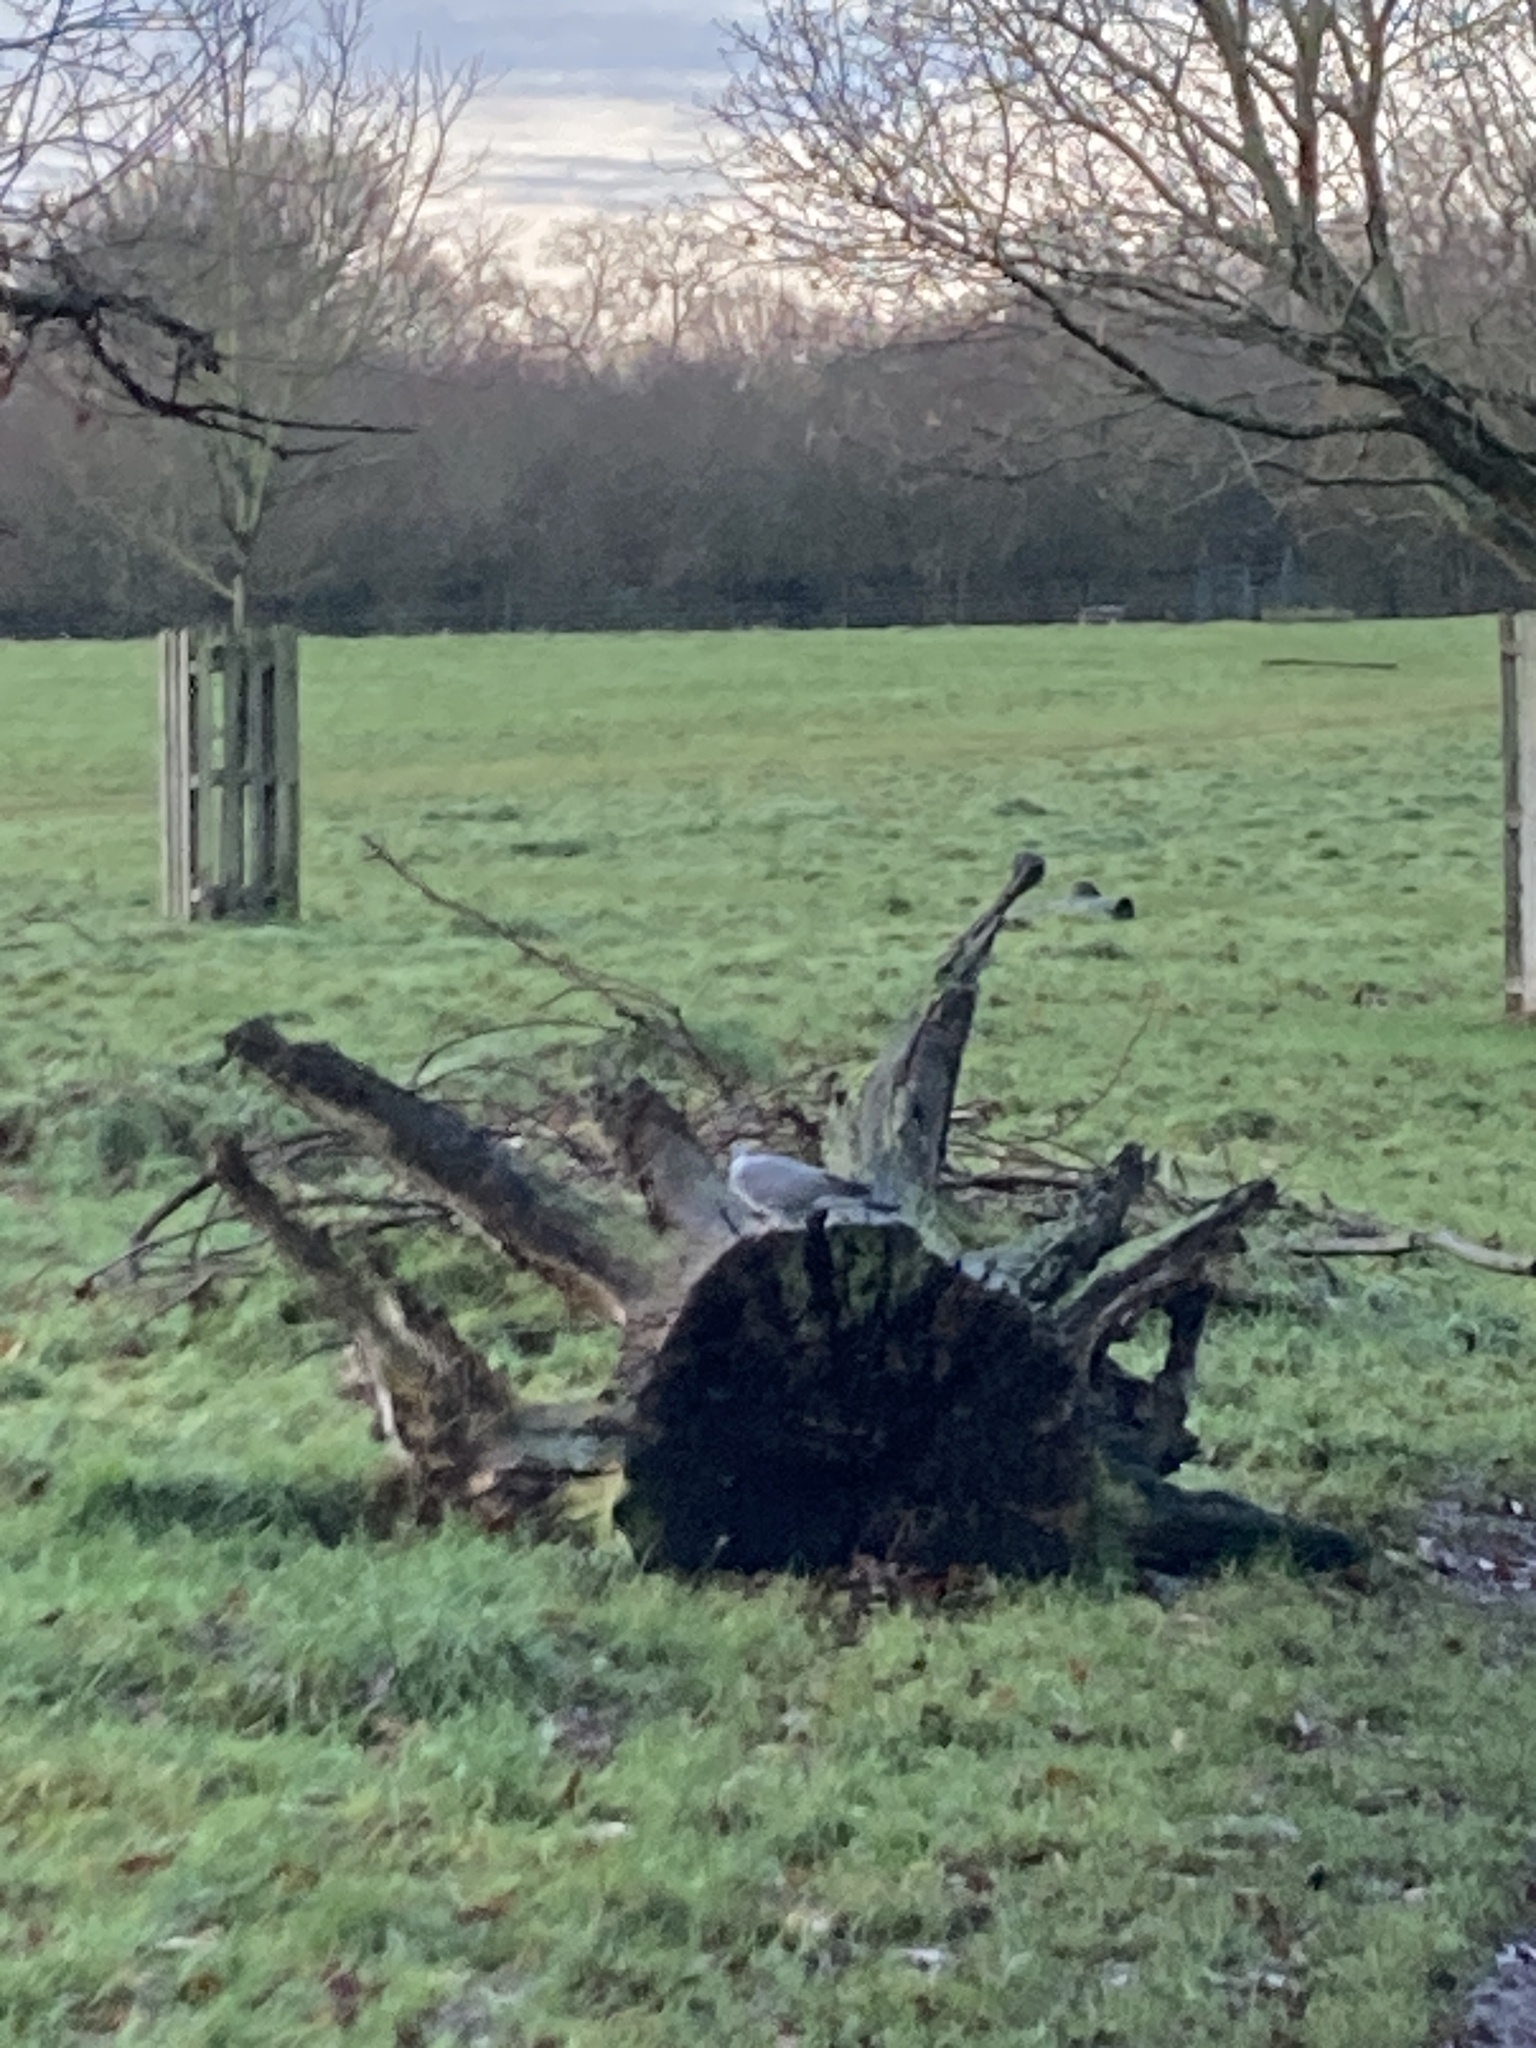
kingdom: Animalia
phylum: Chordata
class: Aves
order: Columbiformes
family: Columbidae
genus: Columba
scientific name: Columba palumbus
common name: Common wood pigeon
